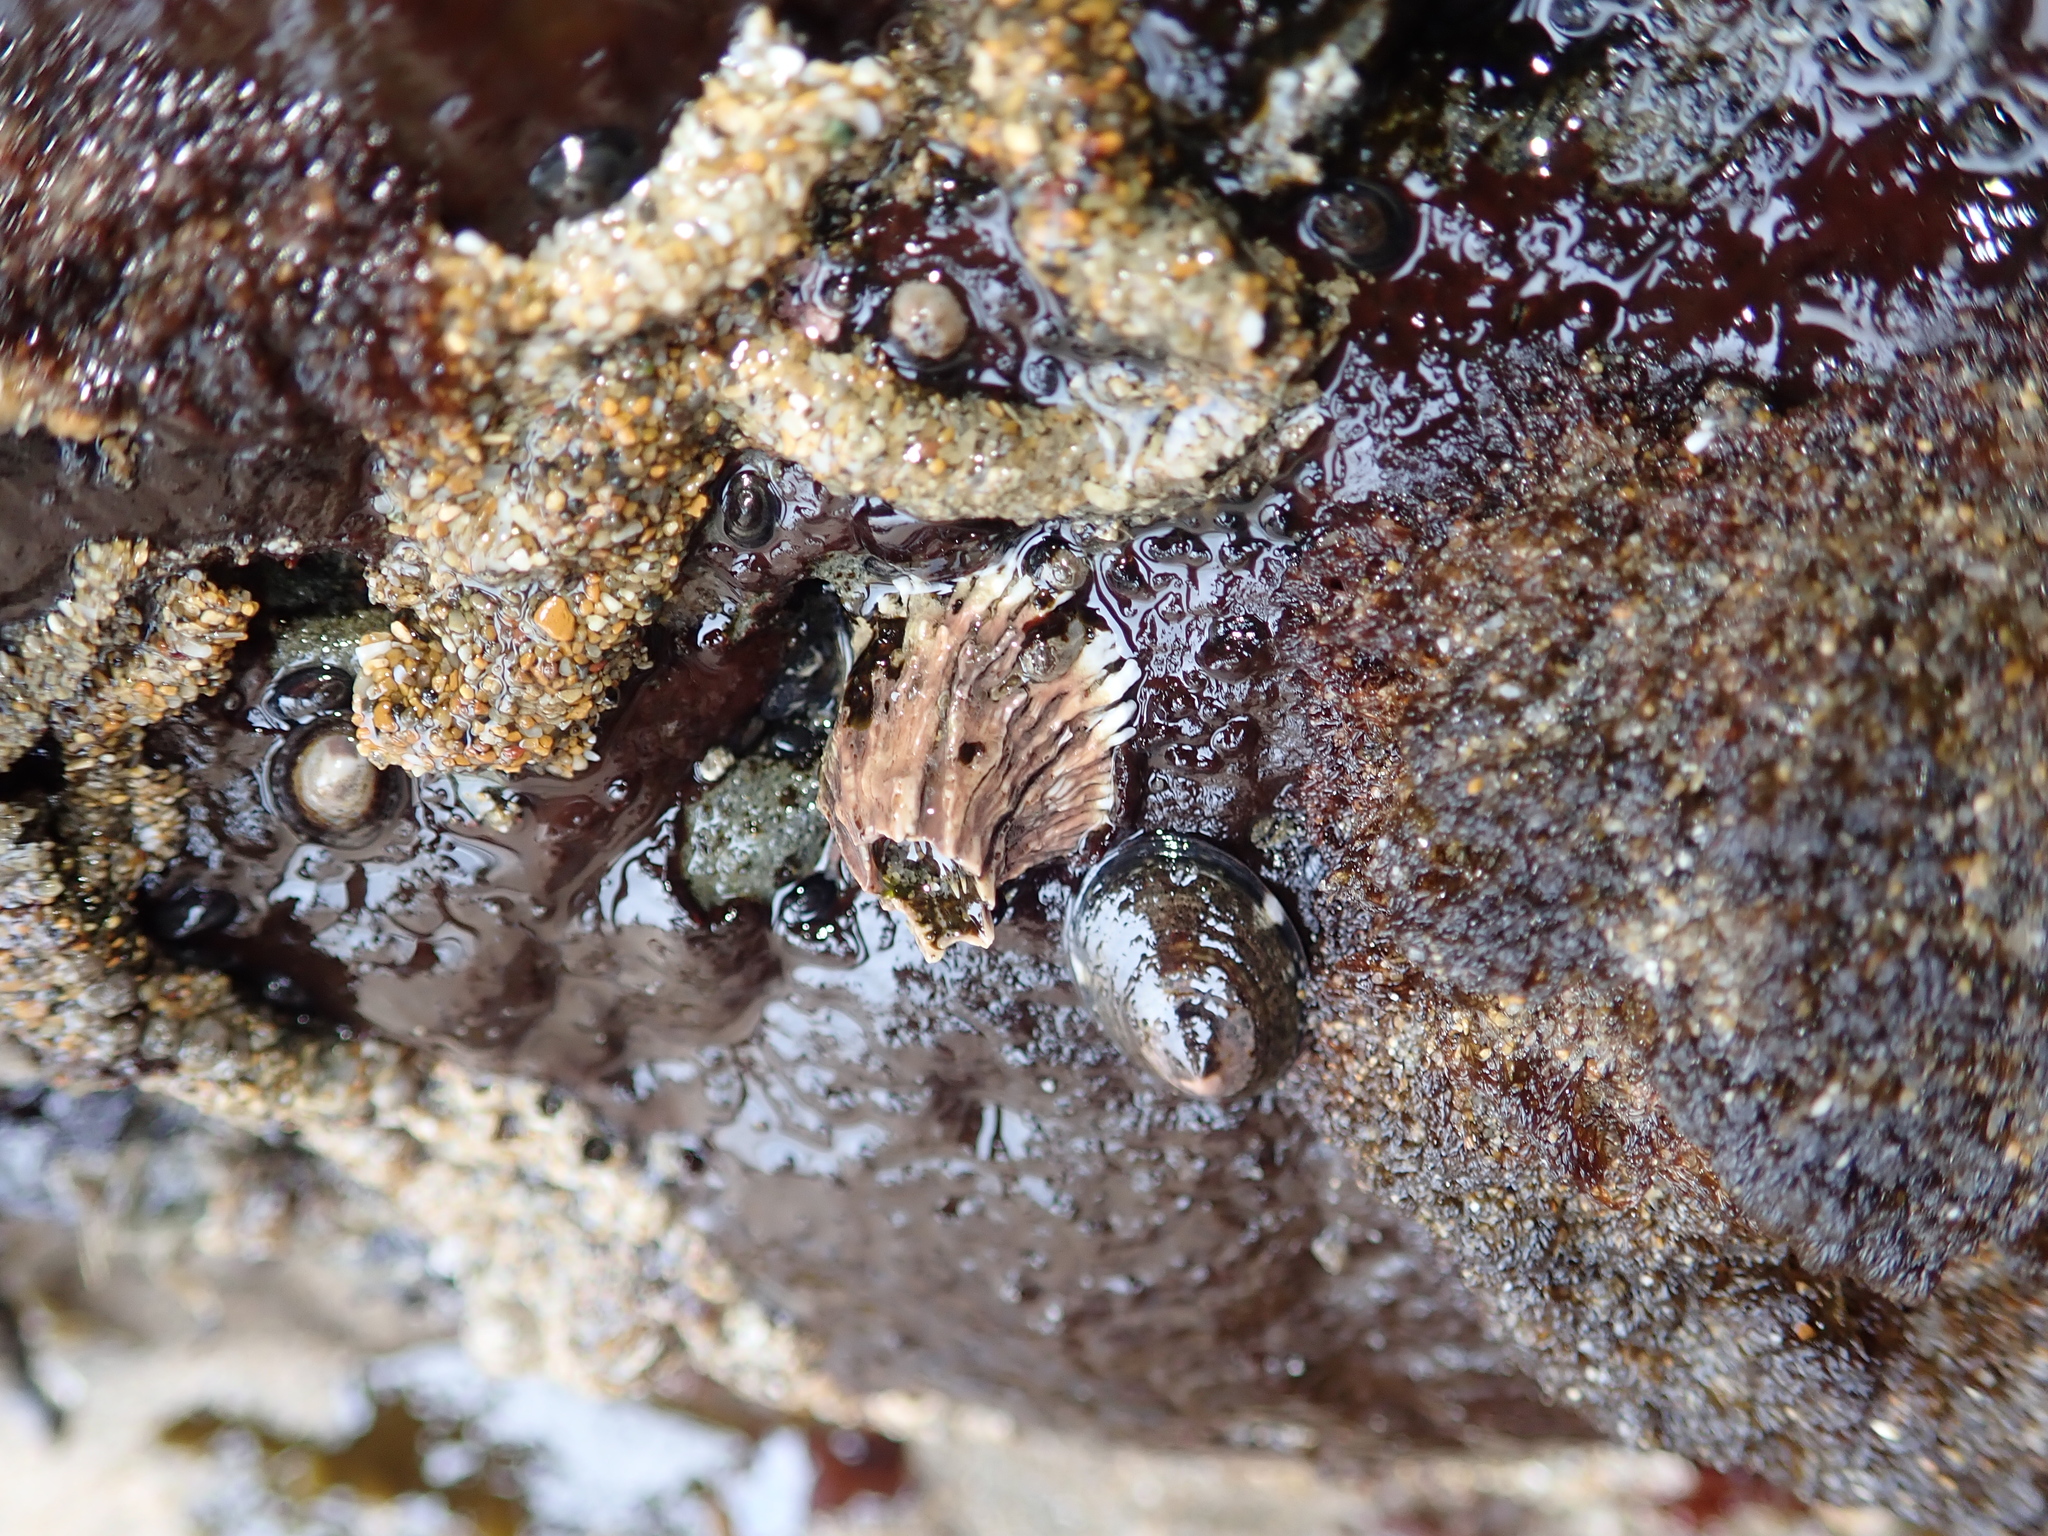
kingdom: Animalia
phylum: Arthropoda
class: Maxillopoda
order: Sessilia
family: Tetraclitidae
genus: Tetraclita
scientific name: Tetraclita rubescens
